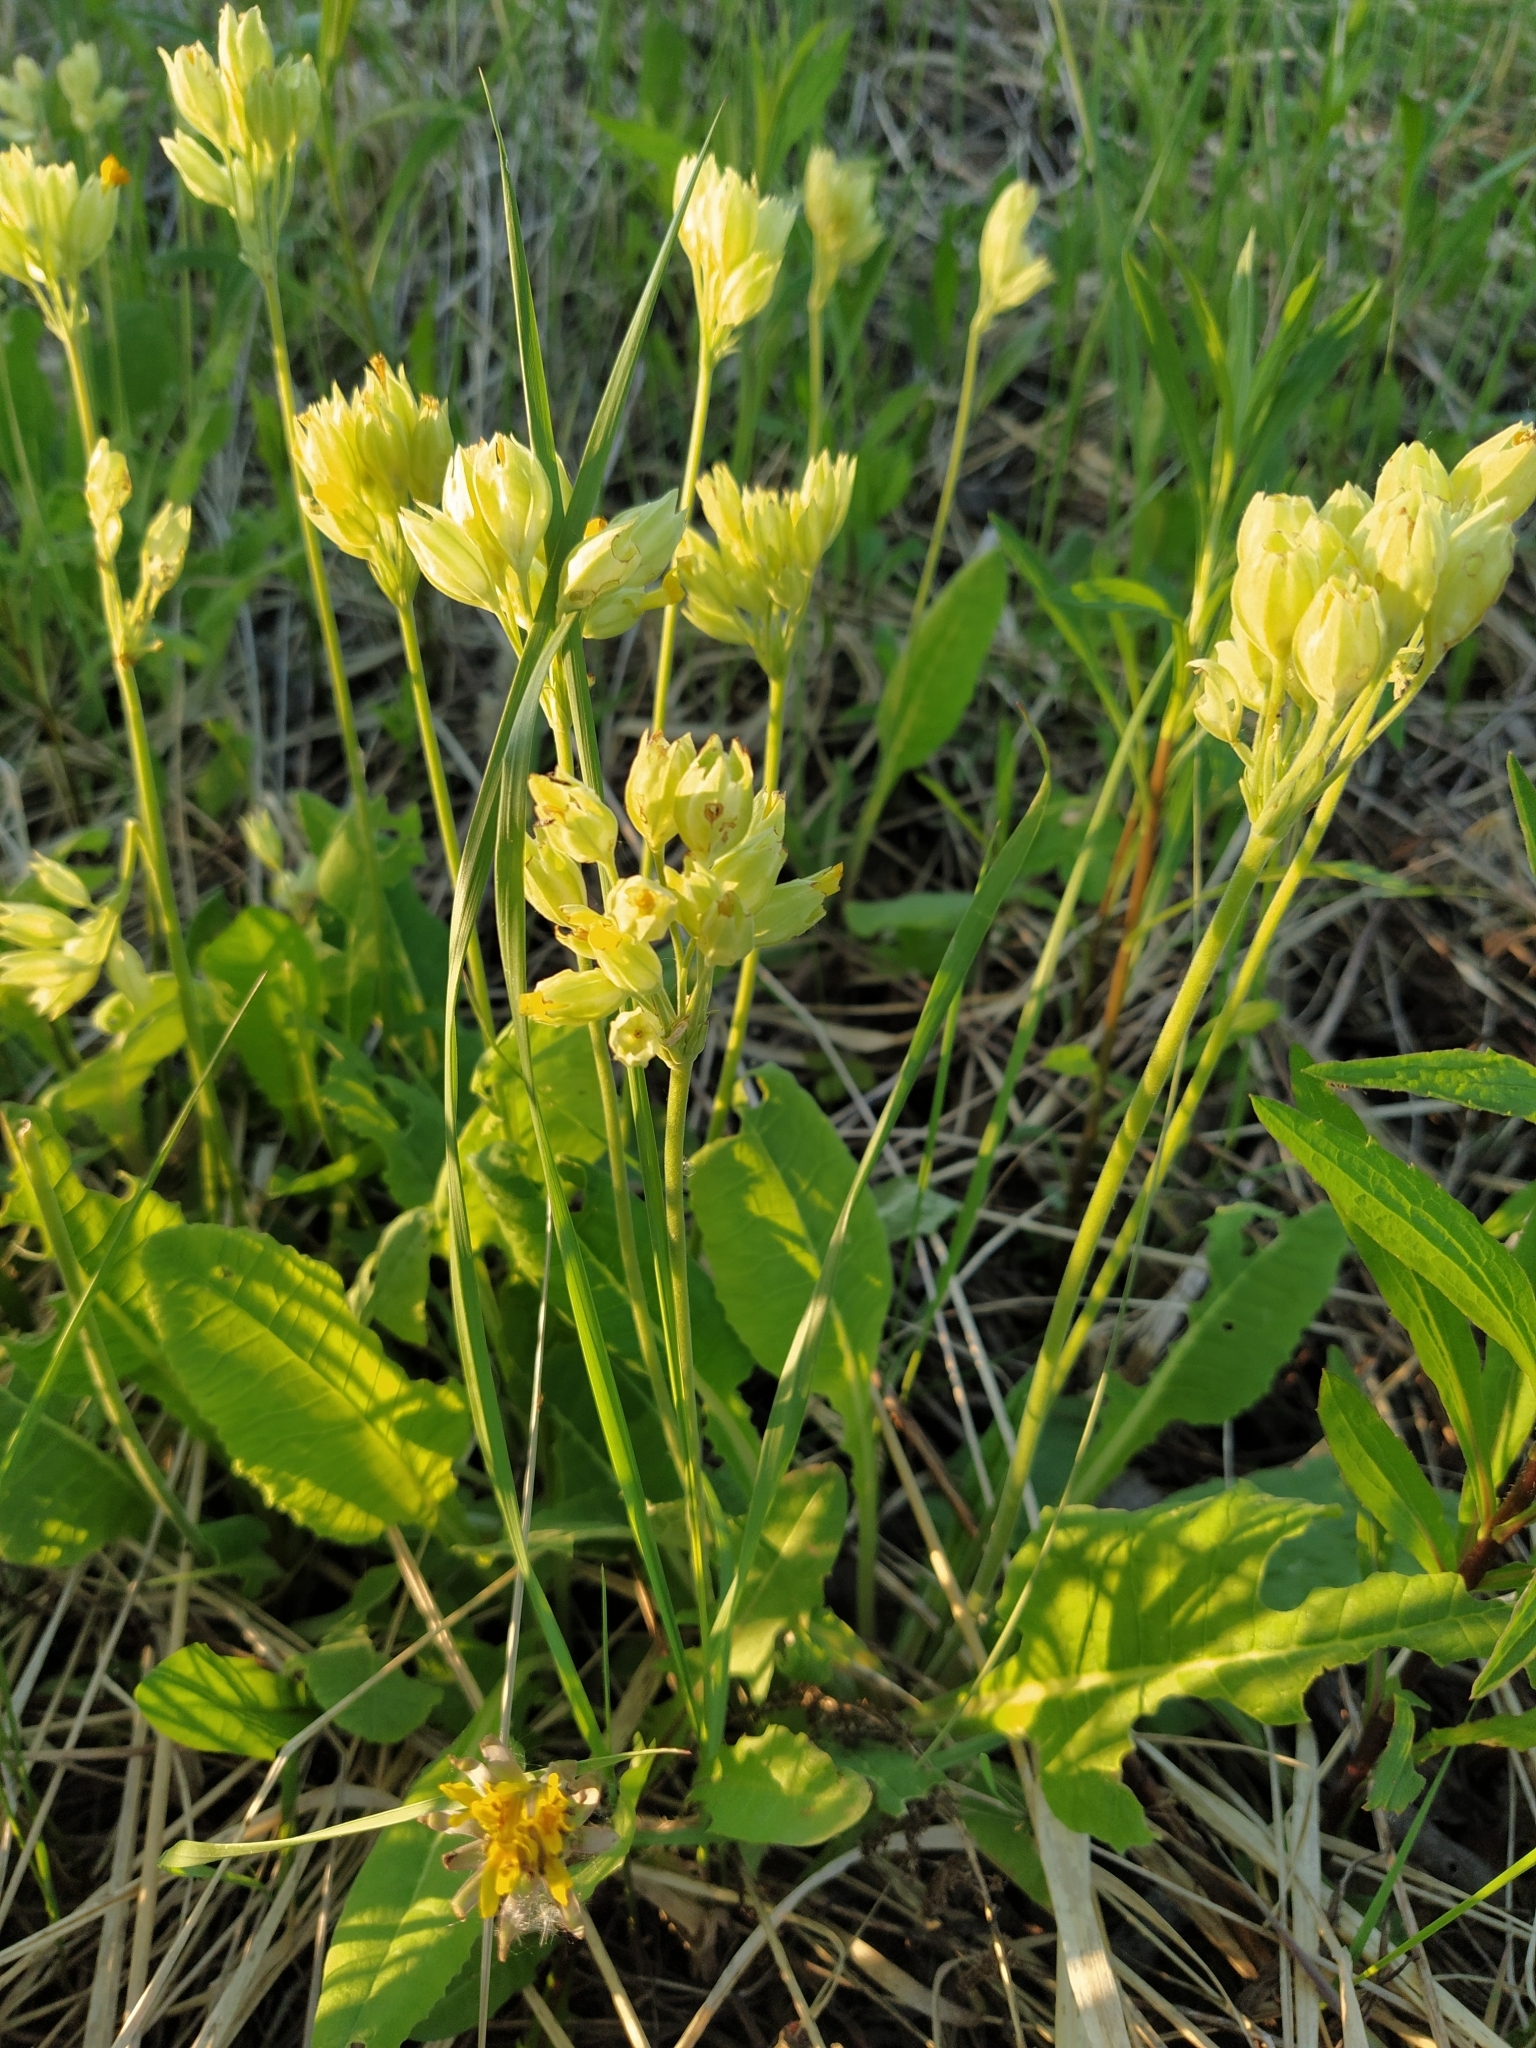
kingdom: Plantae
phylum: Tracheophyta
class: Magnoliopsida
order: Ericales
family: Primulaceae
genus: Primula
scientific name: Primula veris
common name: Cowslip
